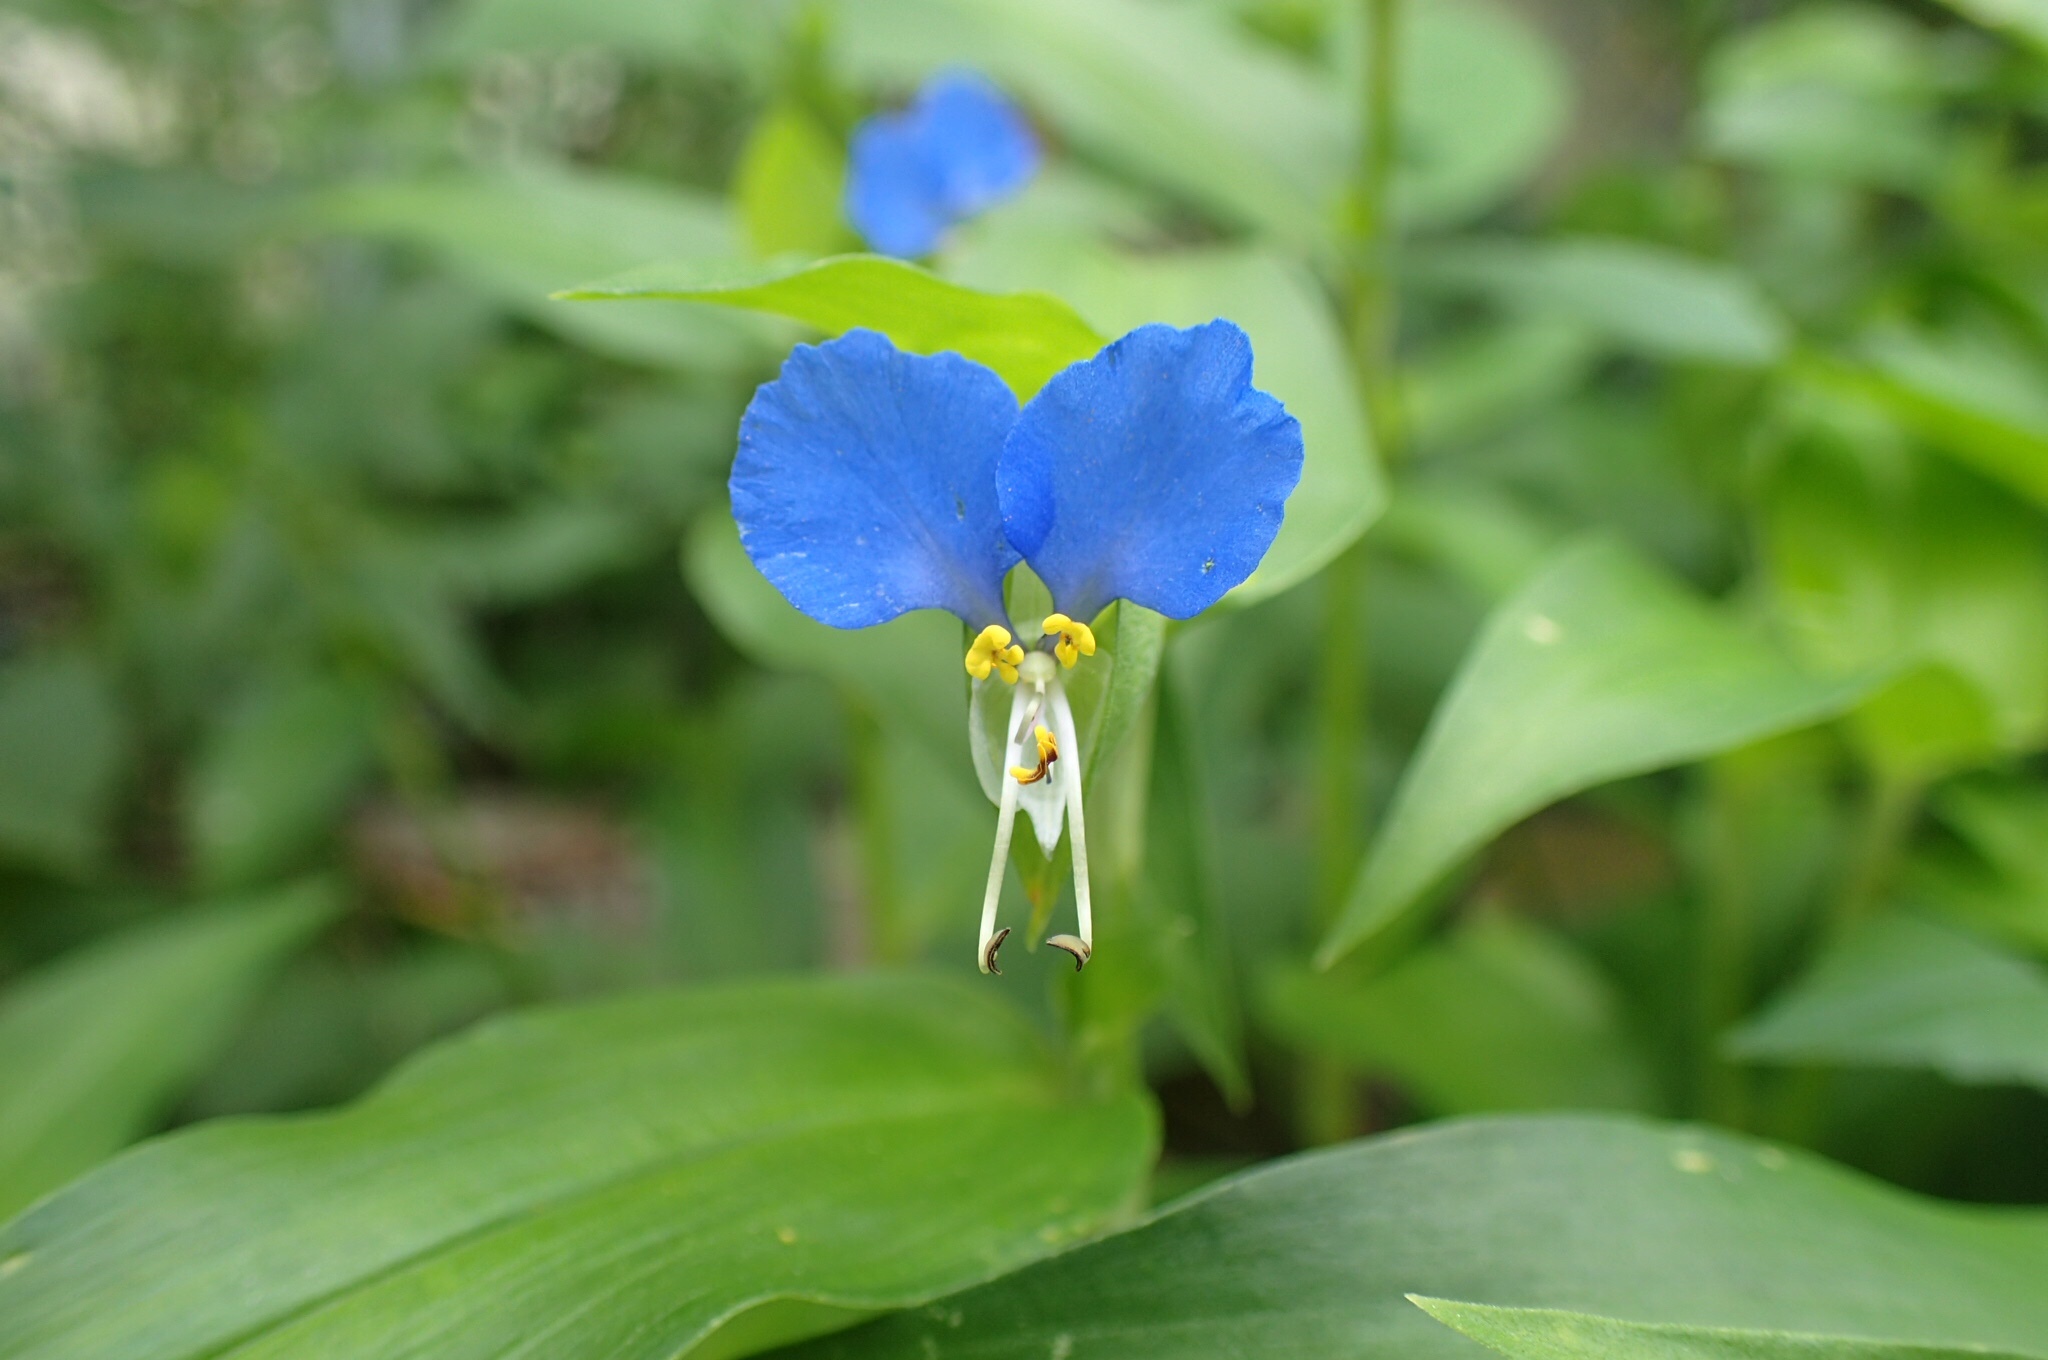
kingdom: Plantae
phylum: Tracheophyta
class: Liliopsida
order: Commelinales
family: Commelinaceae
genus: Commelina
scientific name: Commelina communis
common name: Asiatic dayflower
